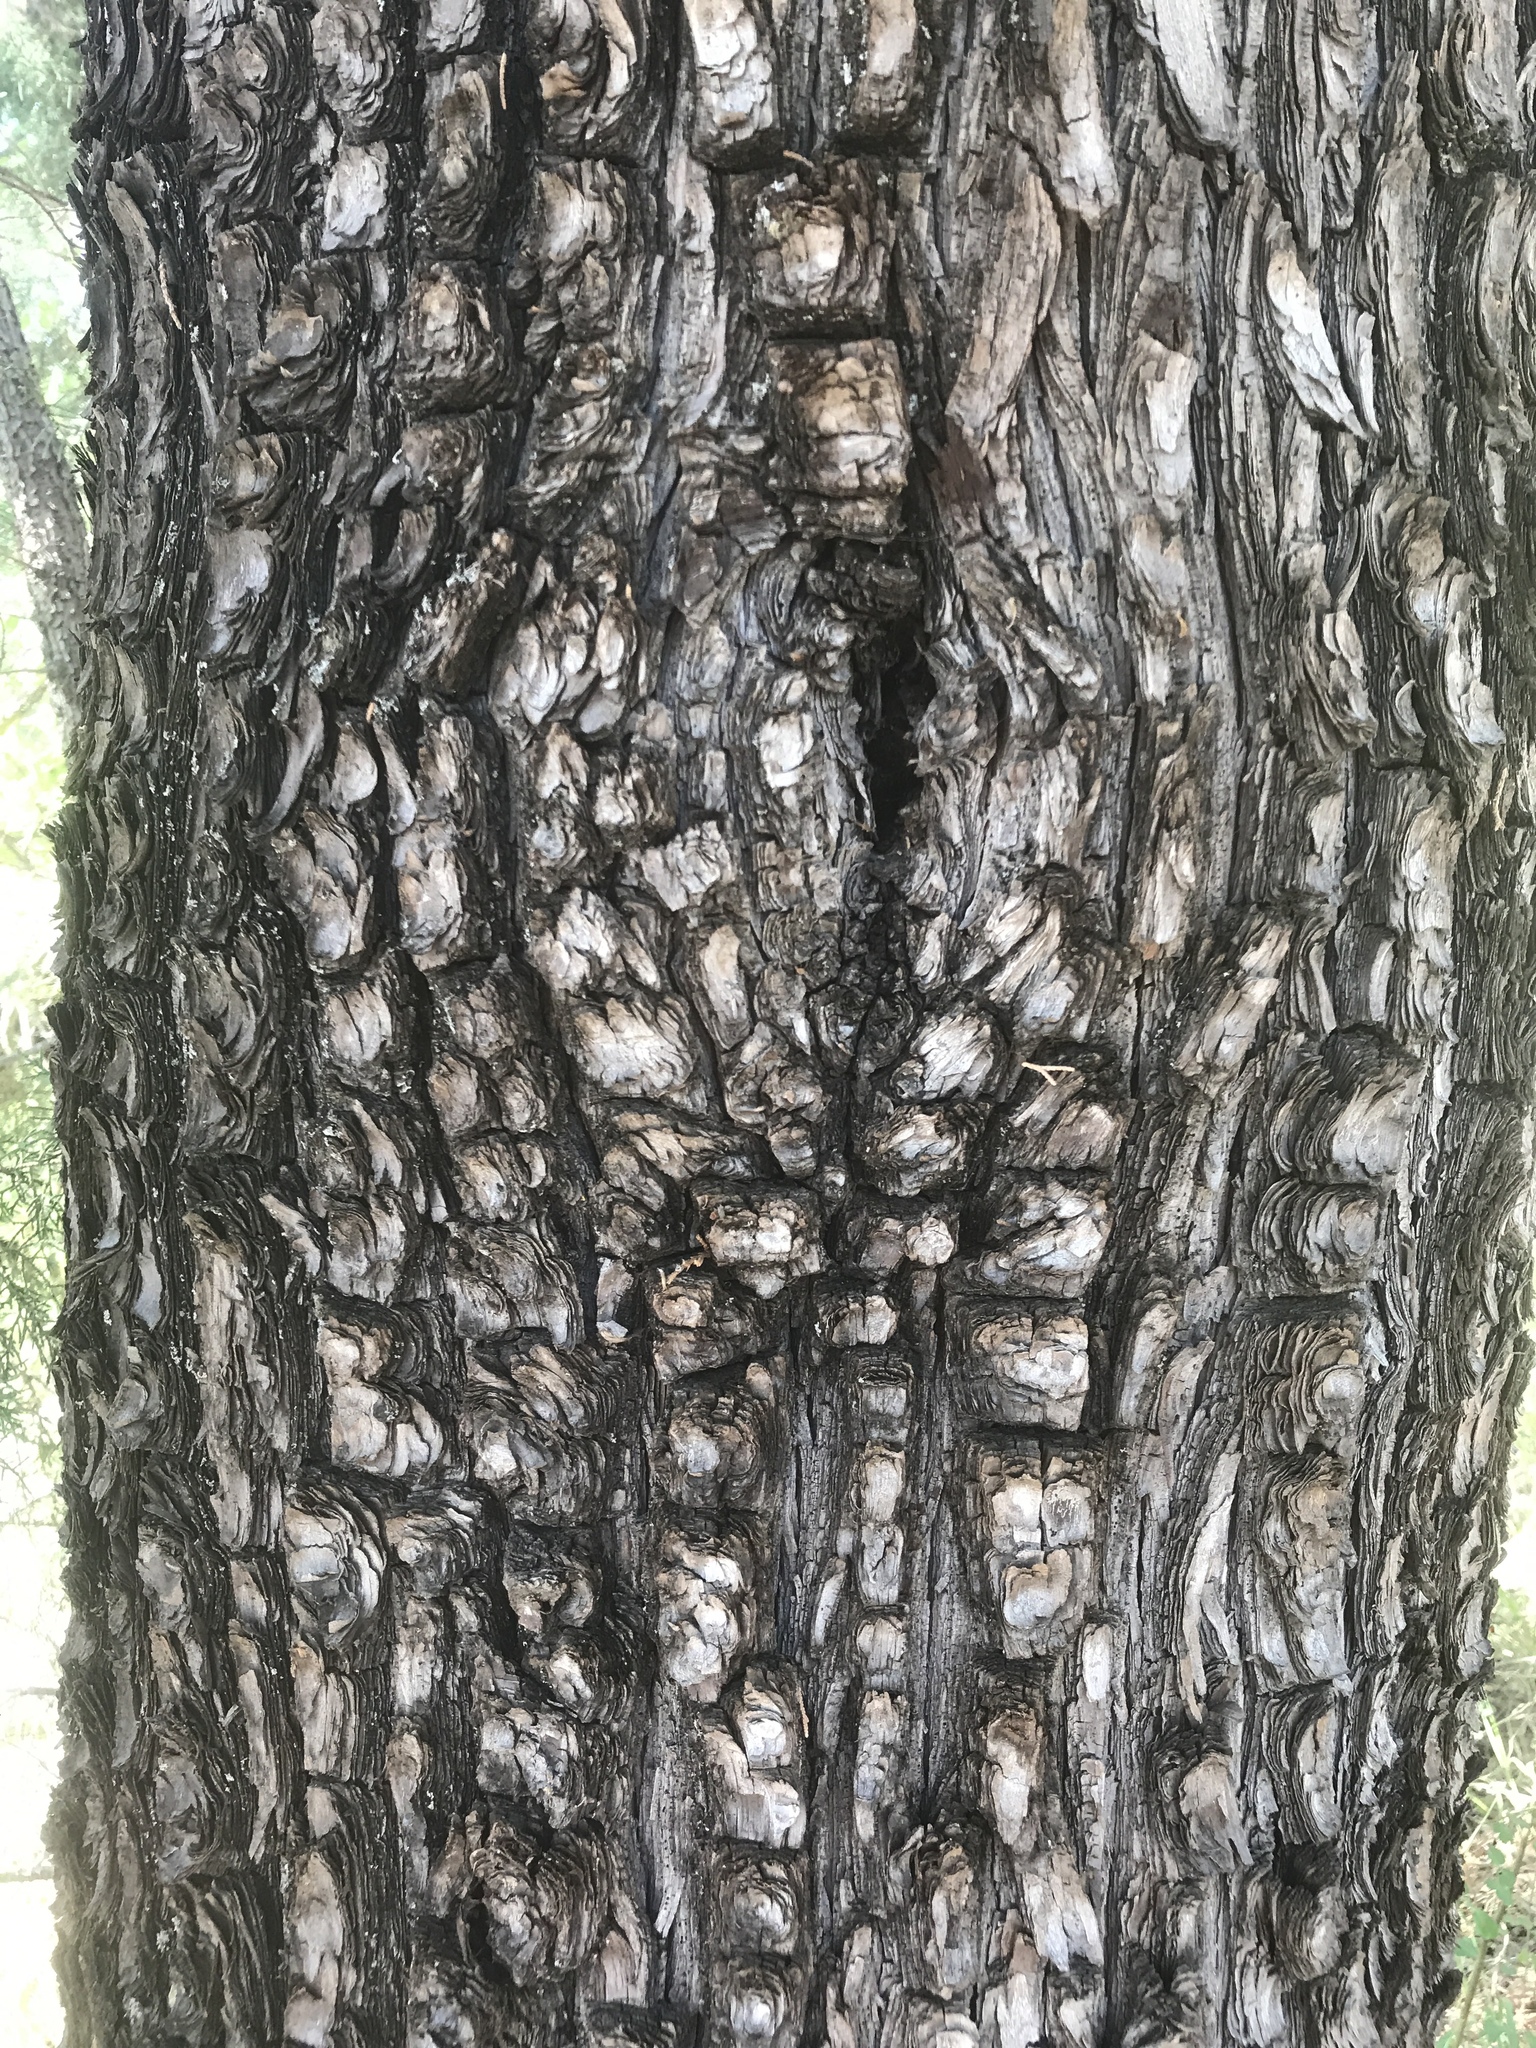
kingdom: Plantae
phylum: Tracheophyta
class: Pinopsida
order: Pinales
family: Cupressaceae
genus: Juniperus
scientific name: Juniperus deppeana
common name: Alligator juniper
